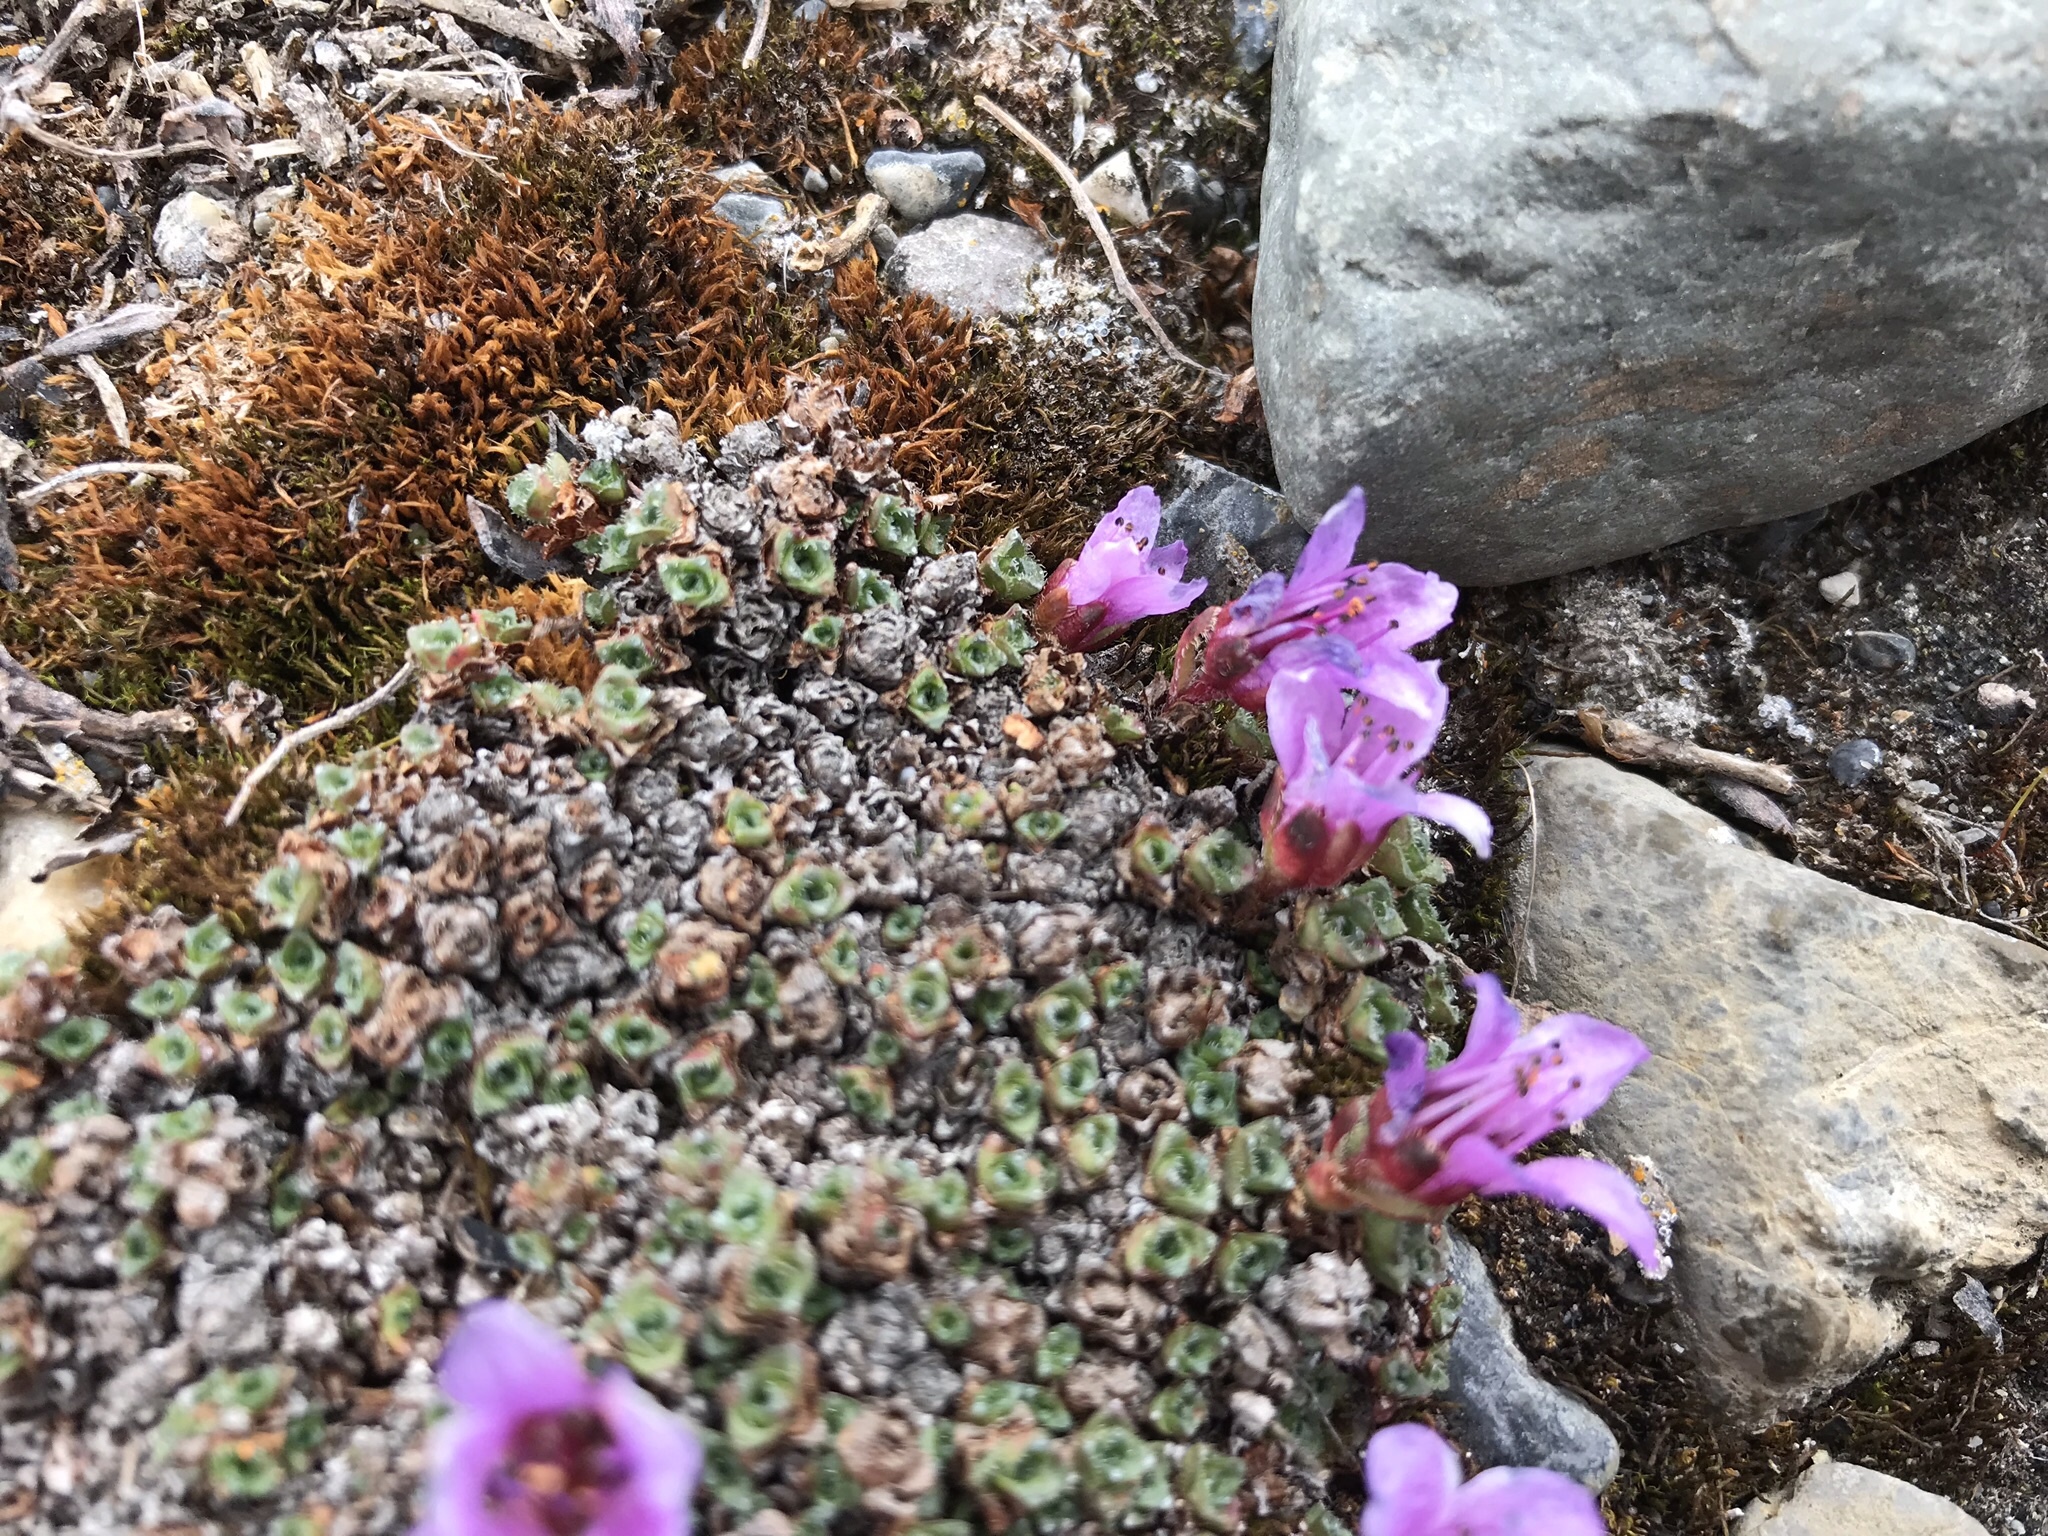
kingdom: Plantae
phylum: Tracheophyta
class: Magnoliopsida
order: Saxifragales
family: Saxifragaceae
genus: Saxifraga
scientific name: Saxifraga oppositifolia
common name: Purple saxifrage
